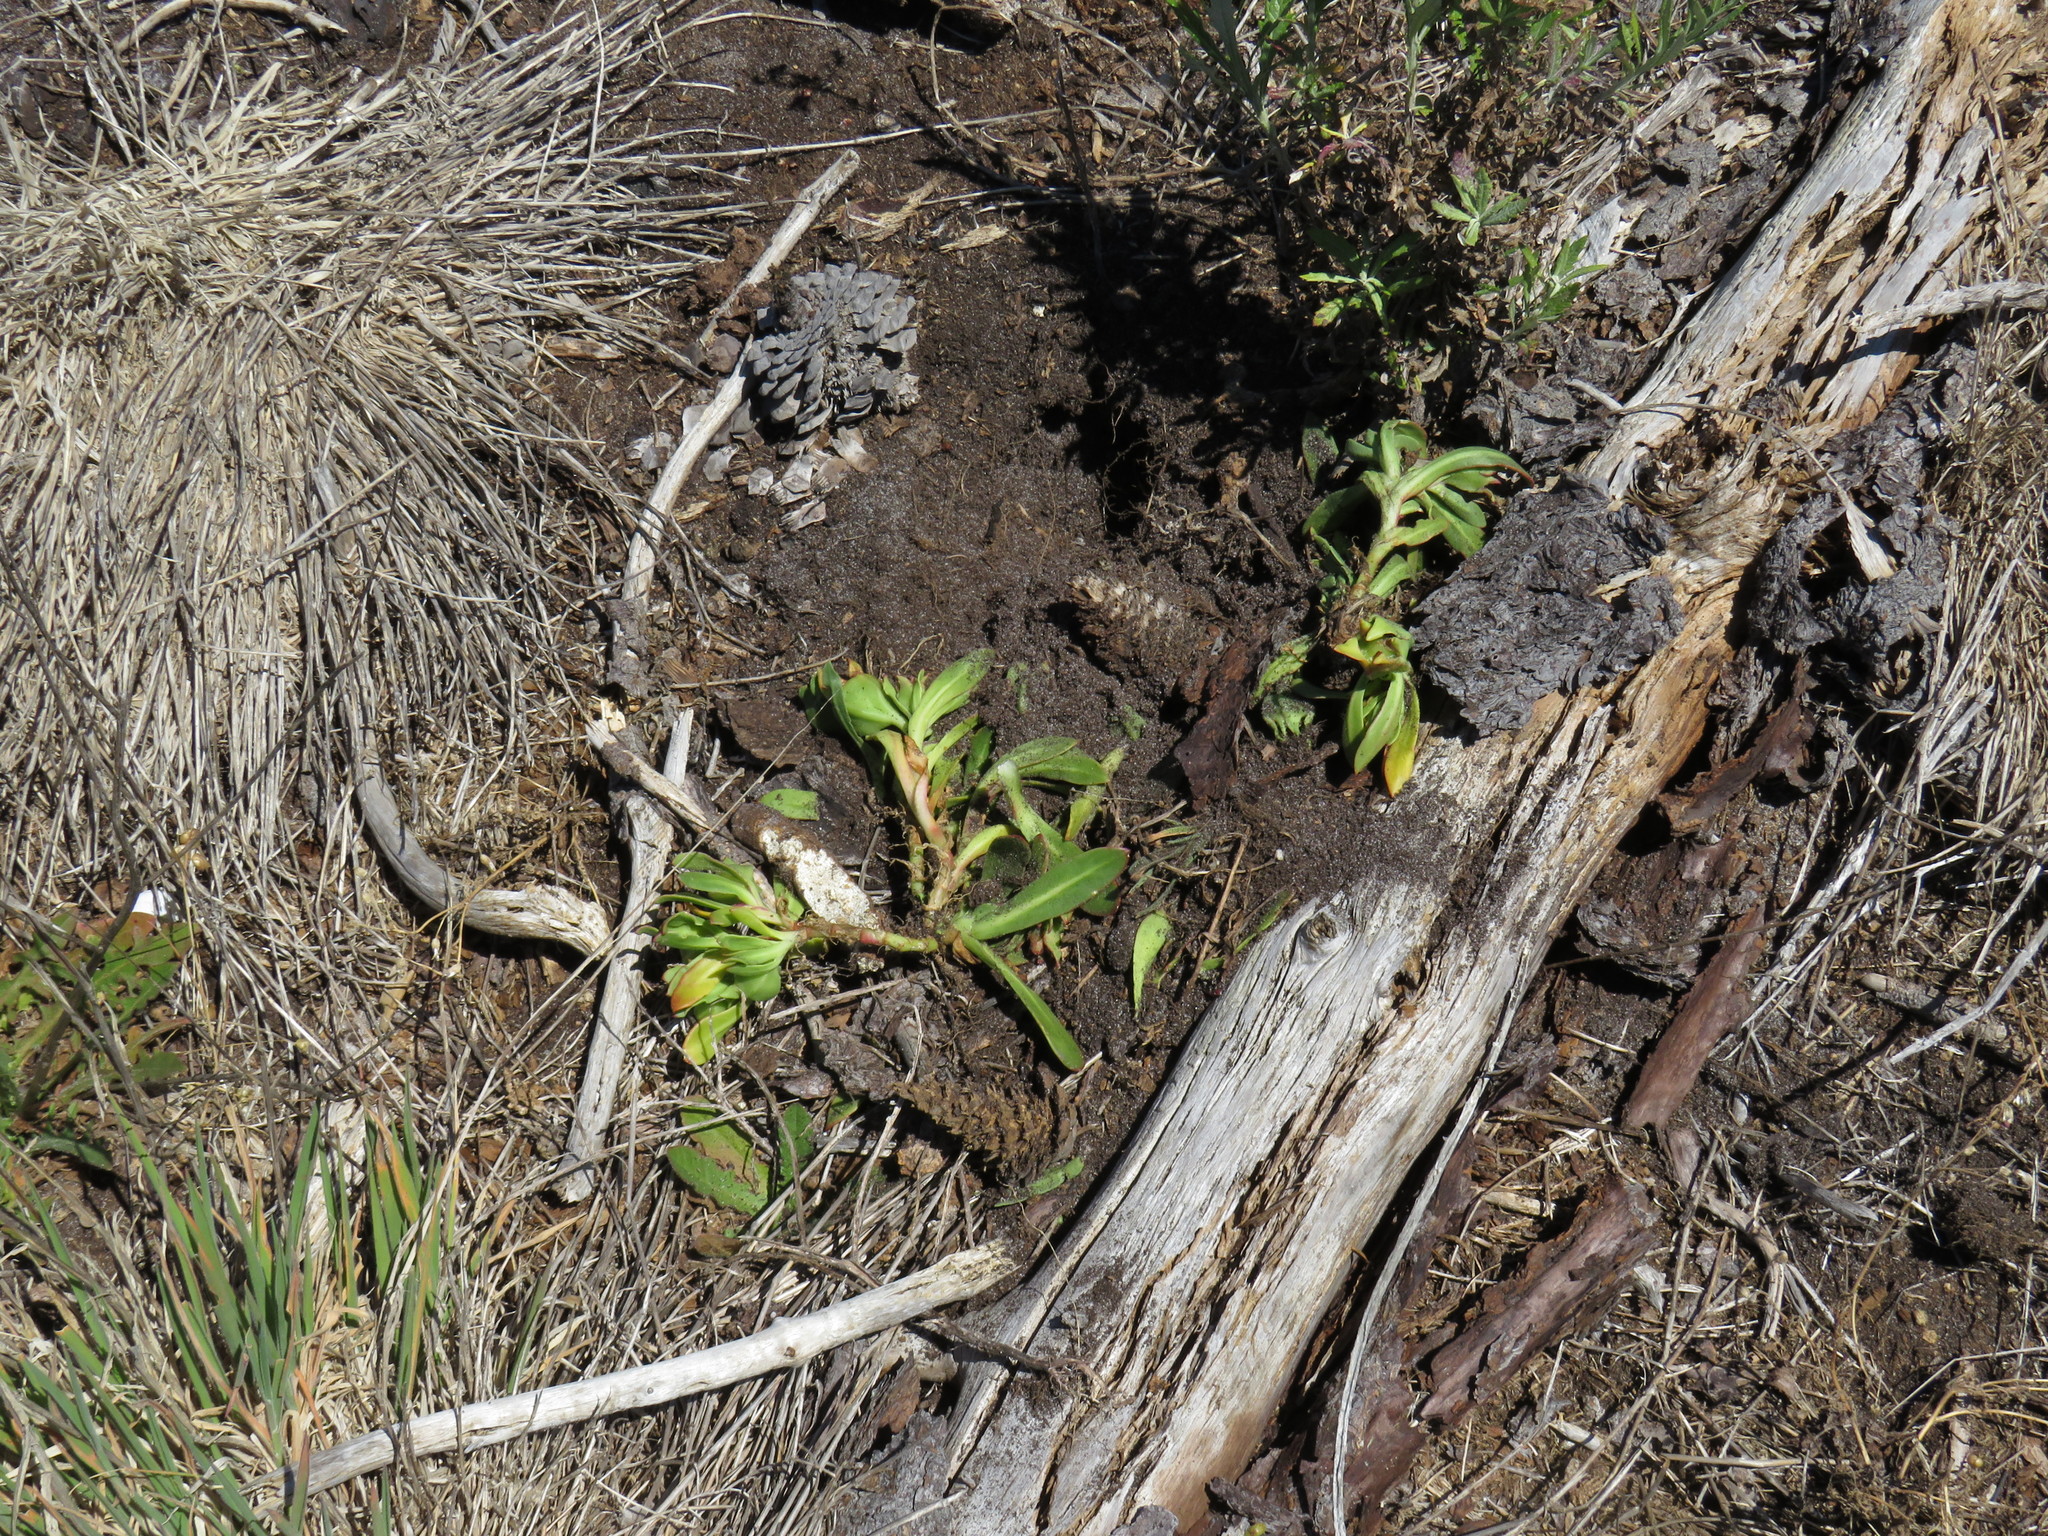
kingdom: Animalia
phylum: Chordata
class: Mammalia
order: Rodentia
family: Hystricidae
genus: Hystrix
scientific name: Hystrix africaeaustralis
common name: Cape porcupine
